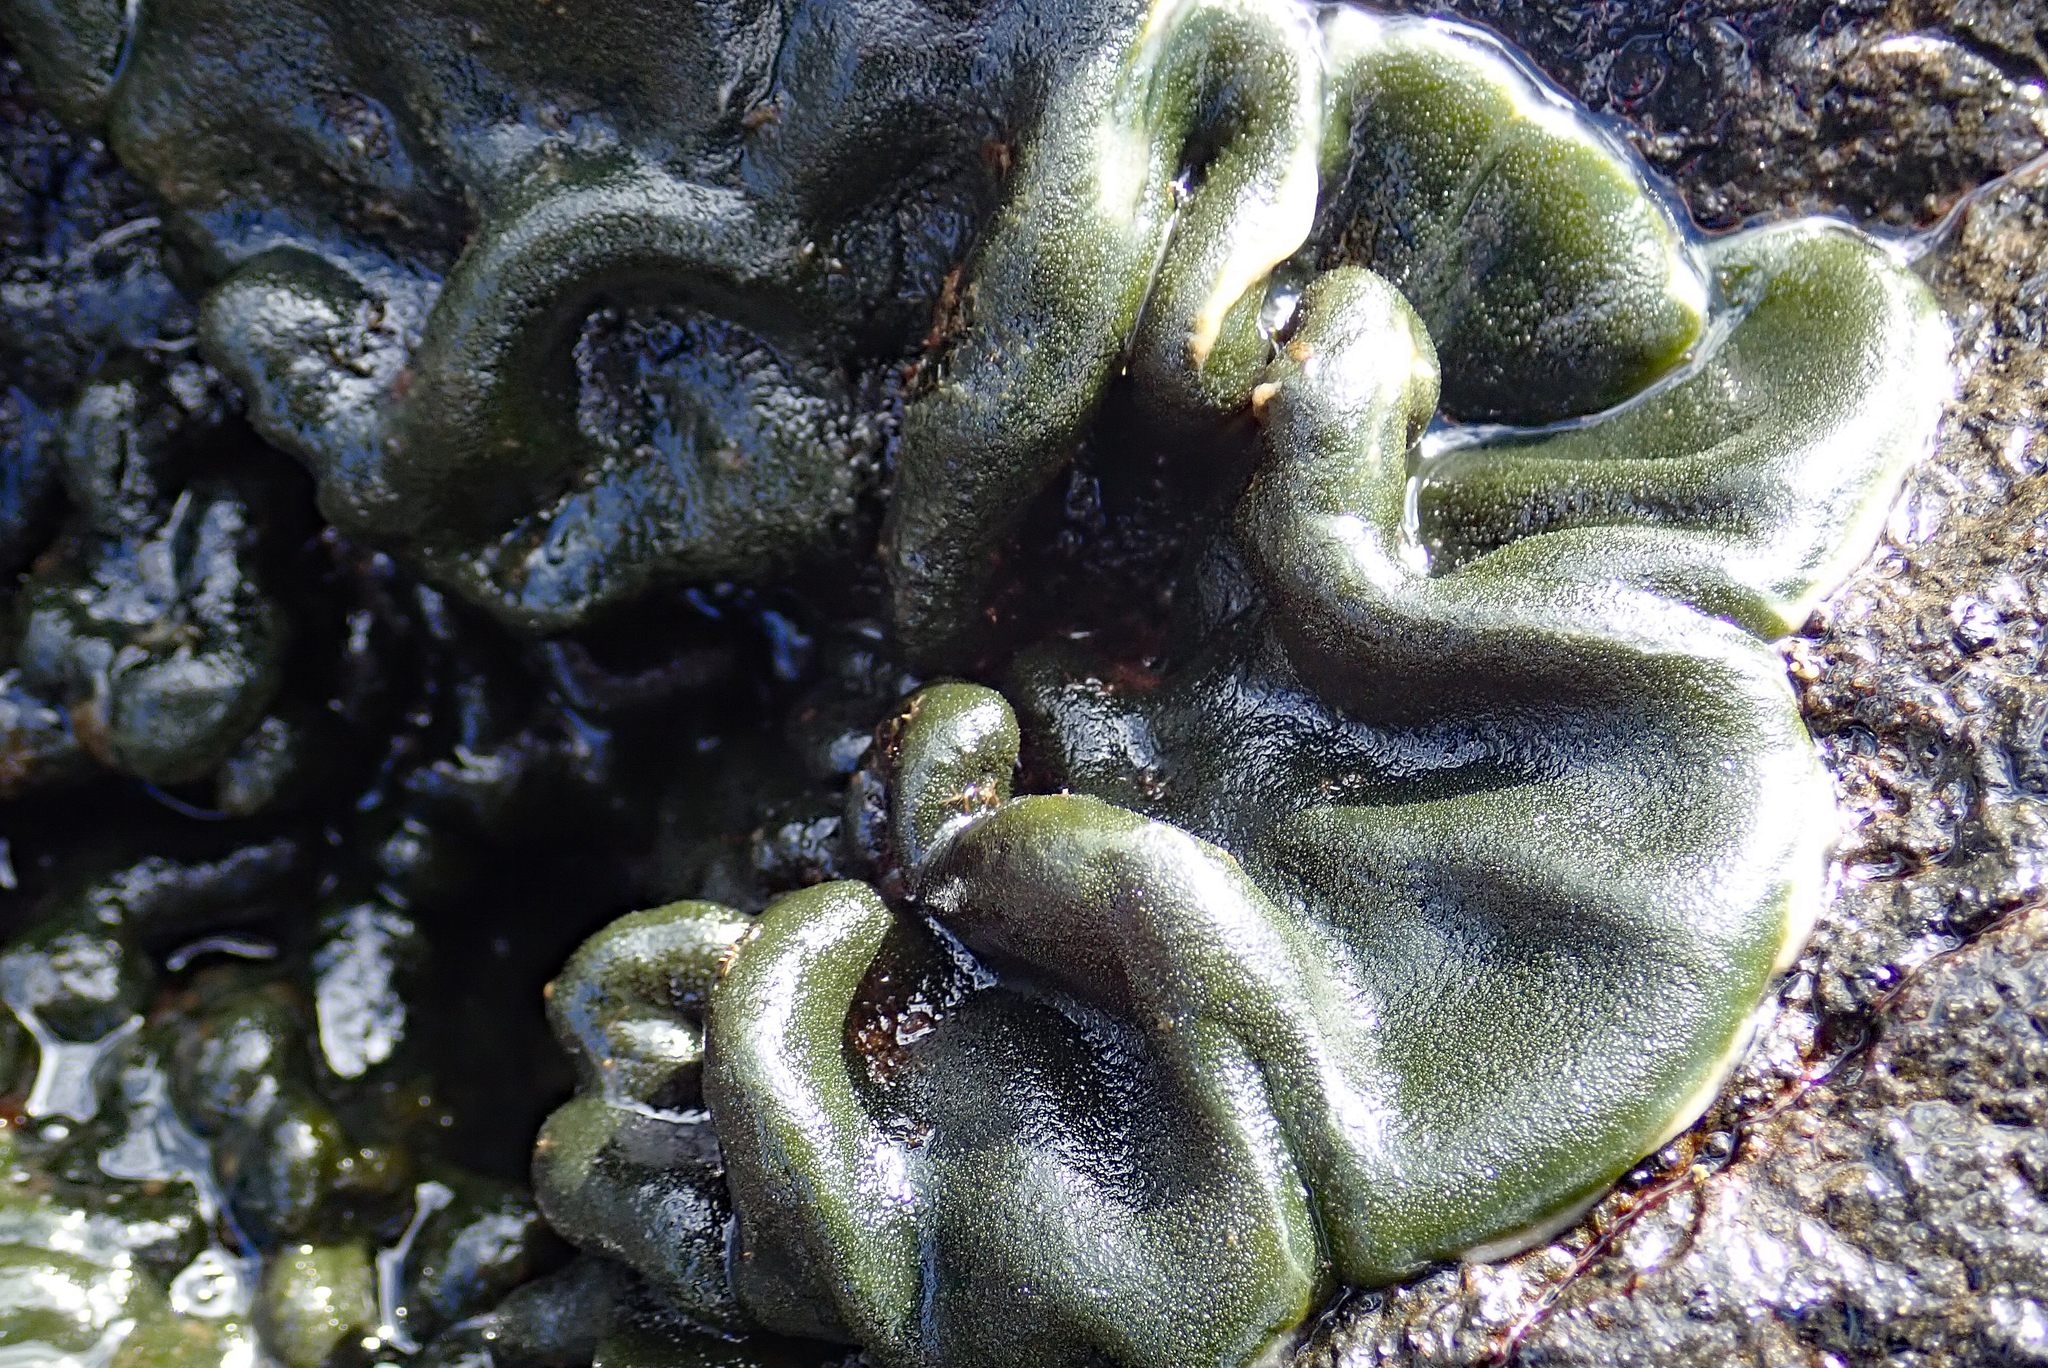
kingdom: Plantae
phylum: Chlorophyta
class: Ulvophyceae
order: Bryopsidales
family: Codiaceae
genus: Codium
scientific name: Codium convolutum
